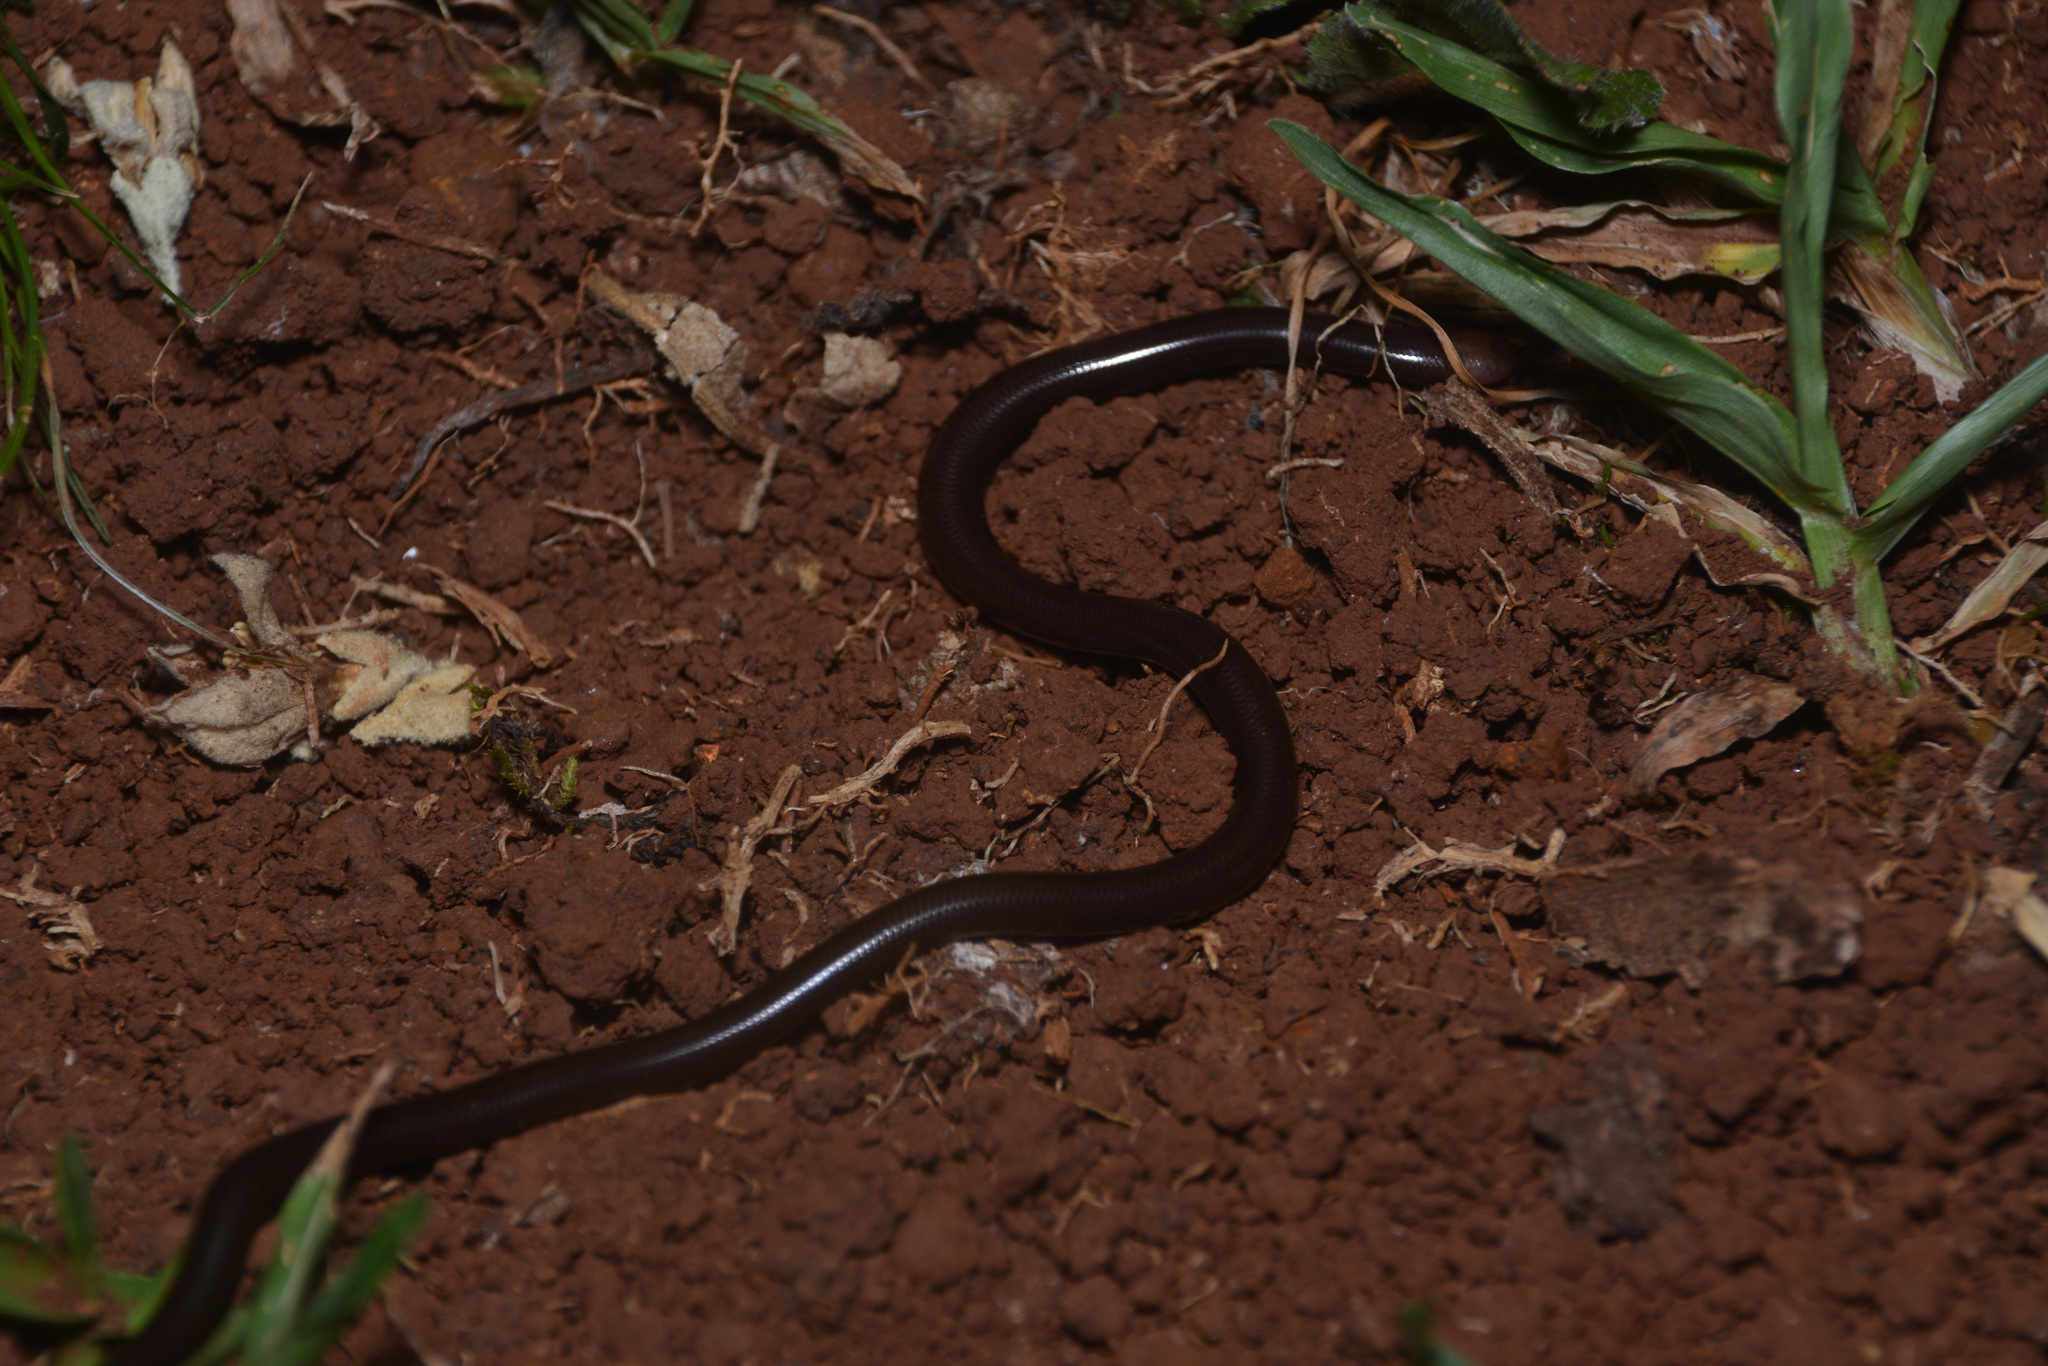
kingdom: Animalia
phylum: Chordata
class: Squamata
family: Anomalepididae
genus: Liotyphlops
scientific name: Liotyphlops ternetzii
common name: Ternetz's blind snake
